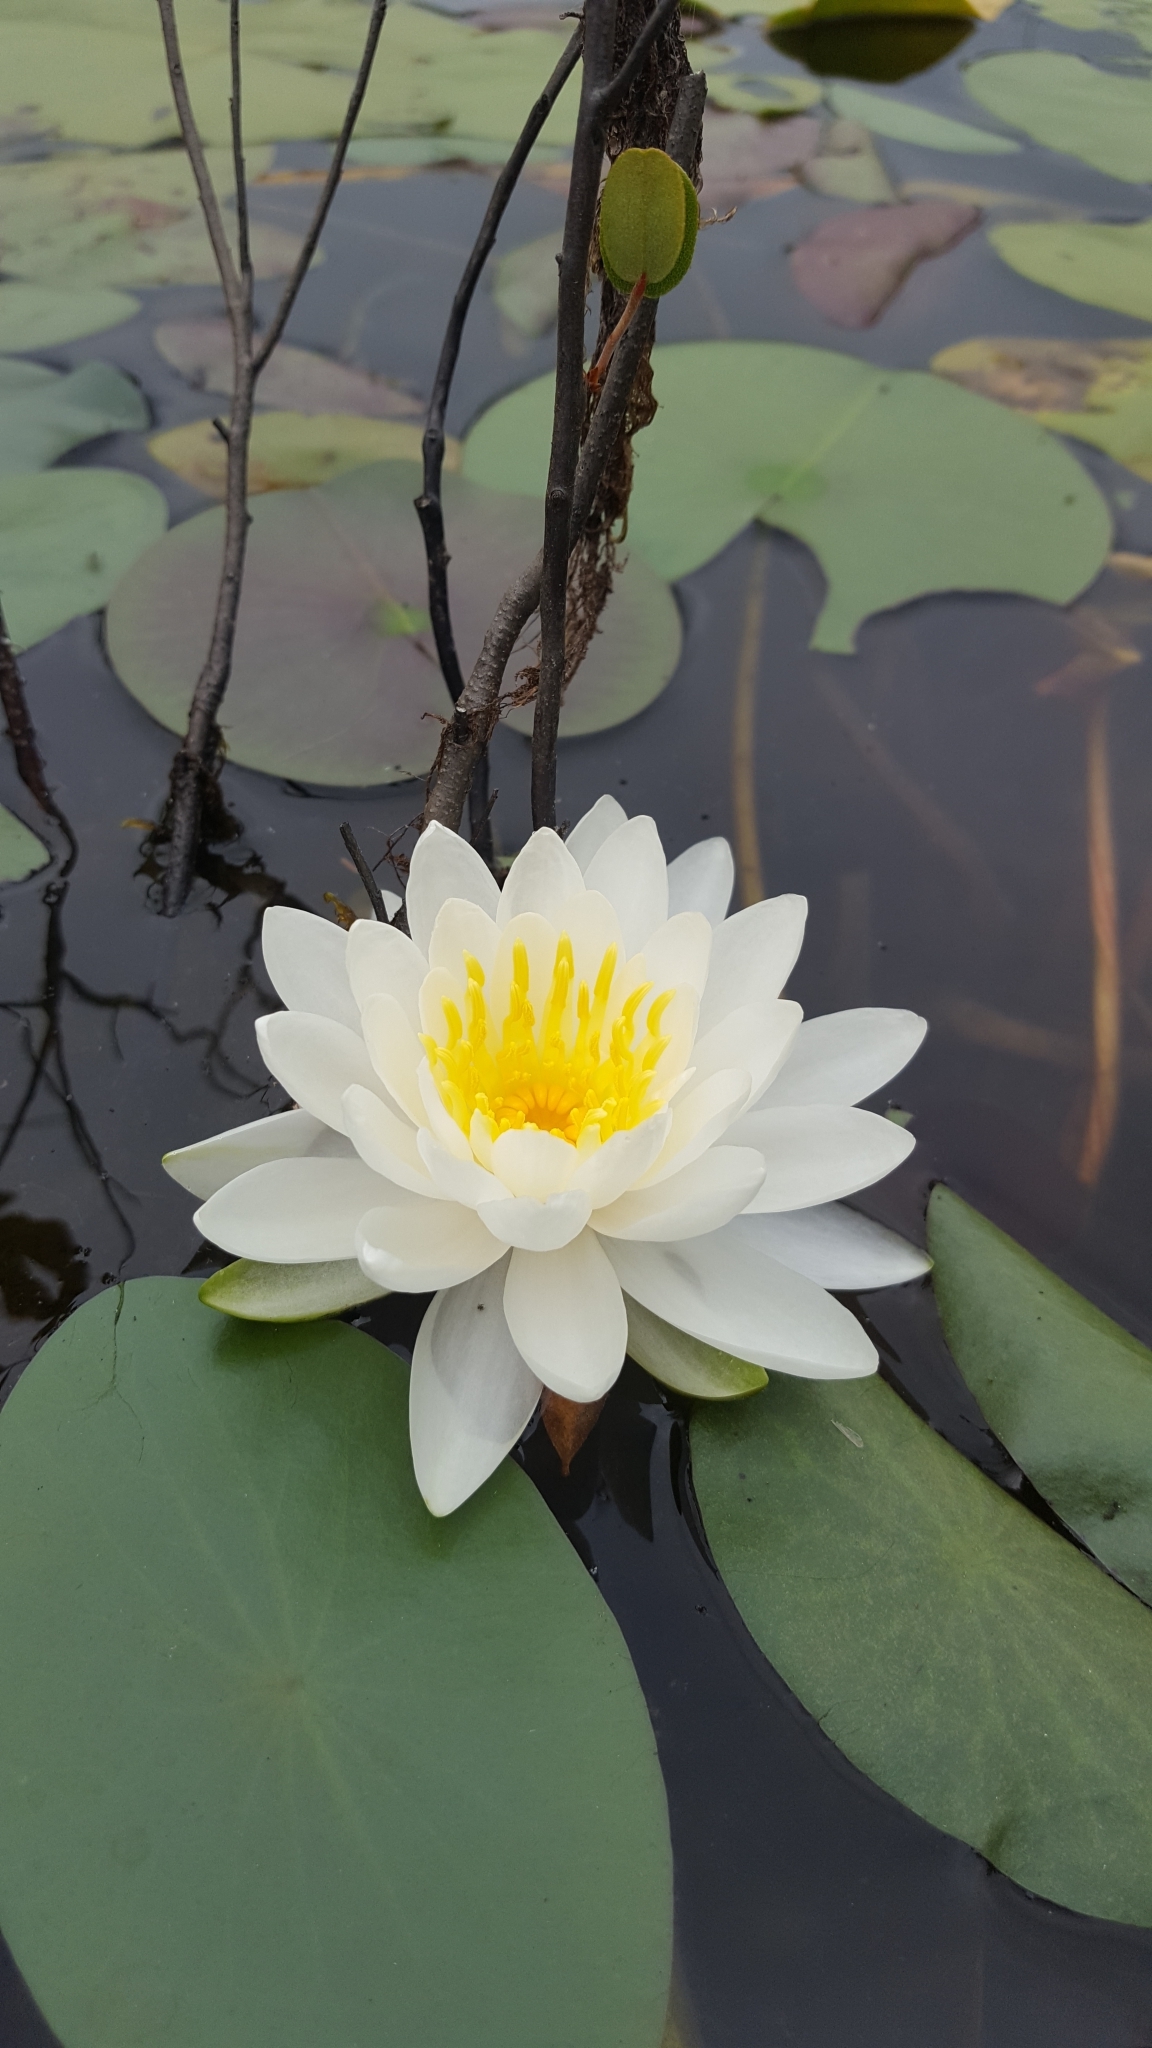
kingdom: Plantae
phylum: Tracheophyta
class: Magnoliopsida
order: Nymphaeales
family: Nymphaeaceae
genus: Nymphaea
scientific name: Nymphaea odorata
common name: Fragrant water-lily
